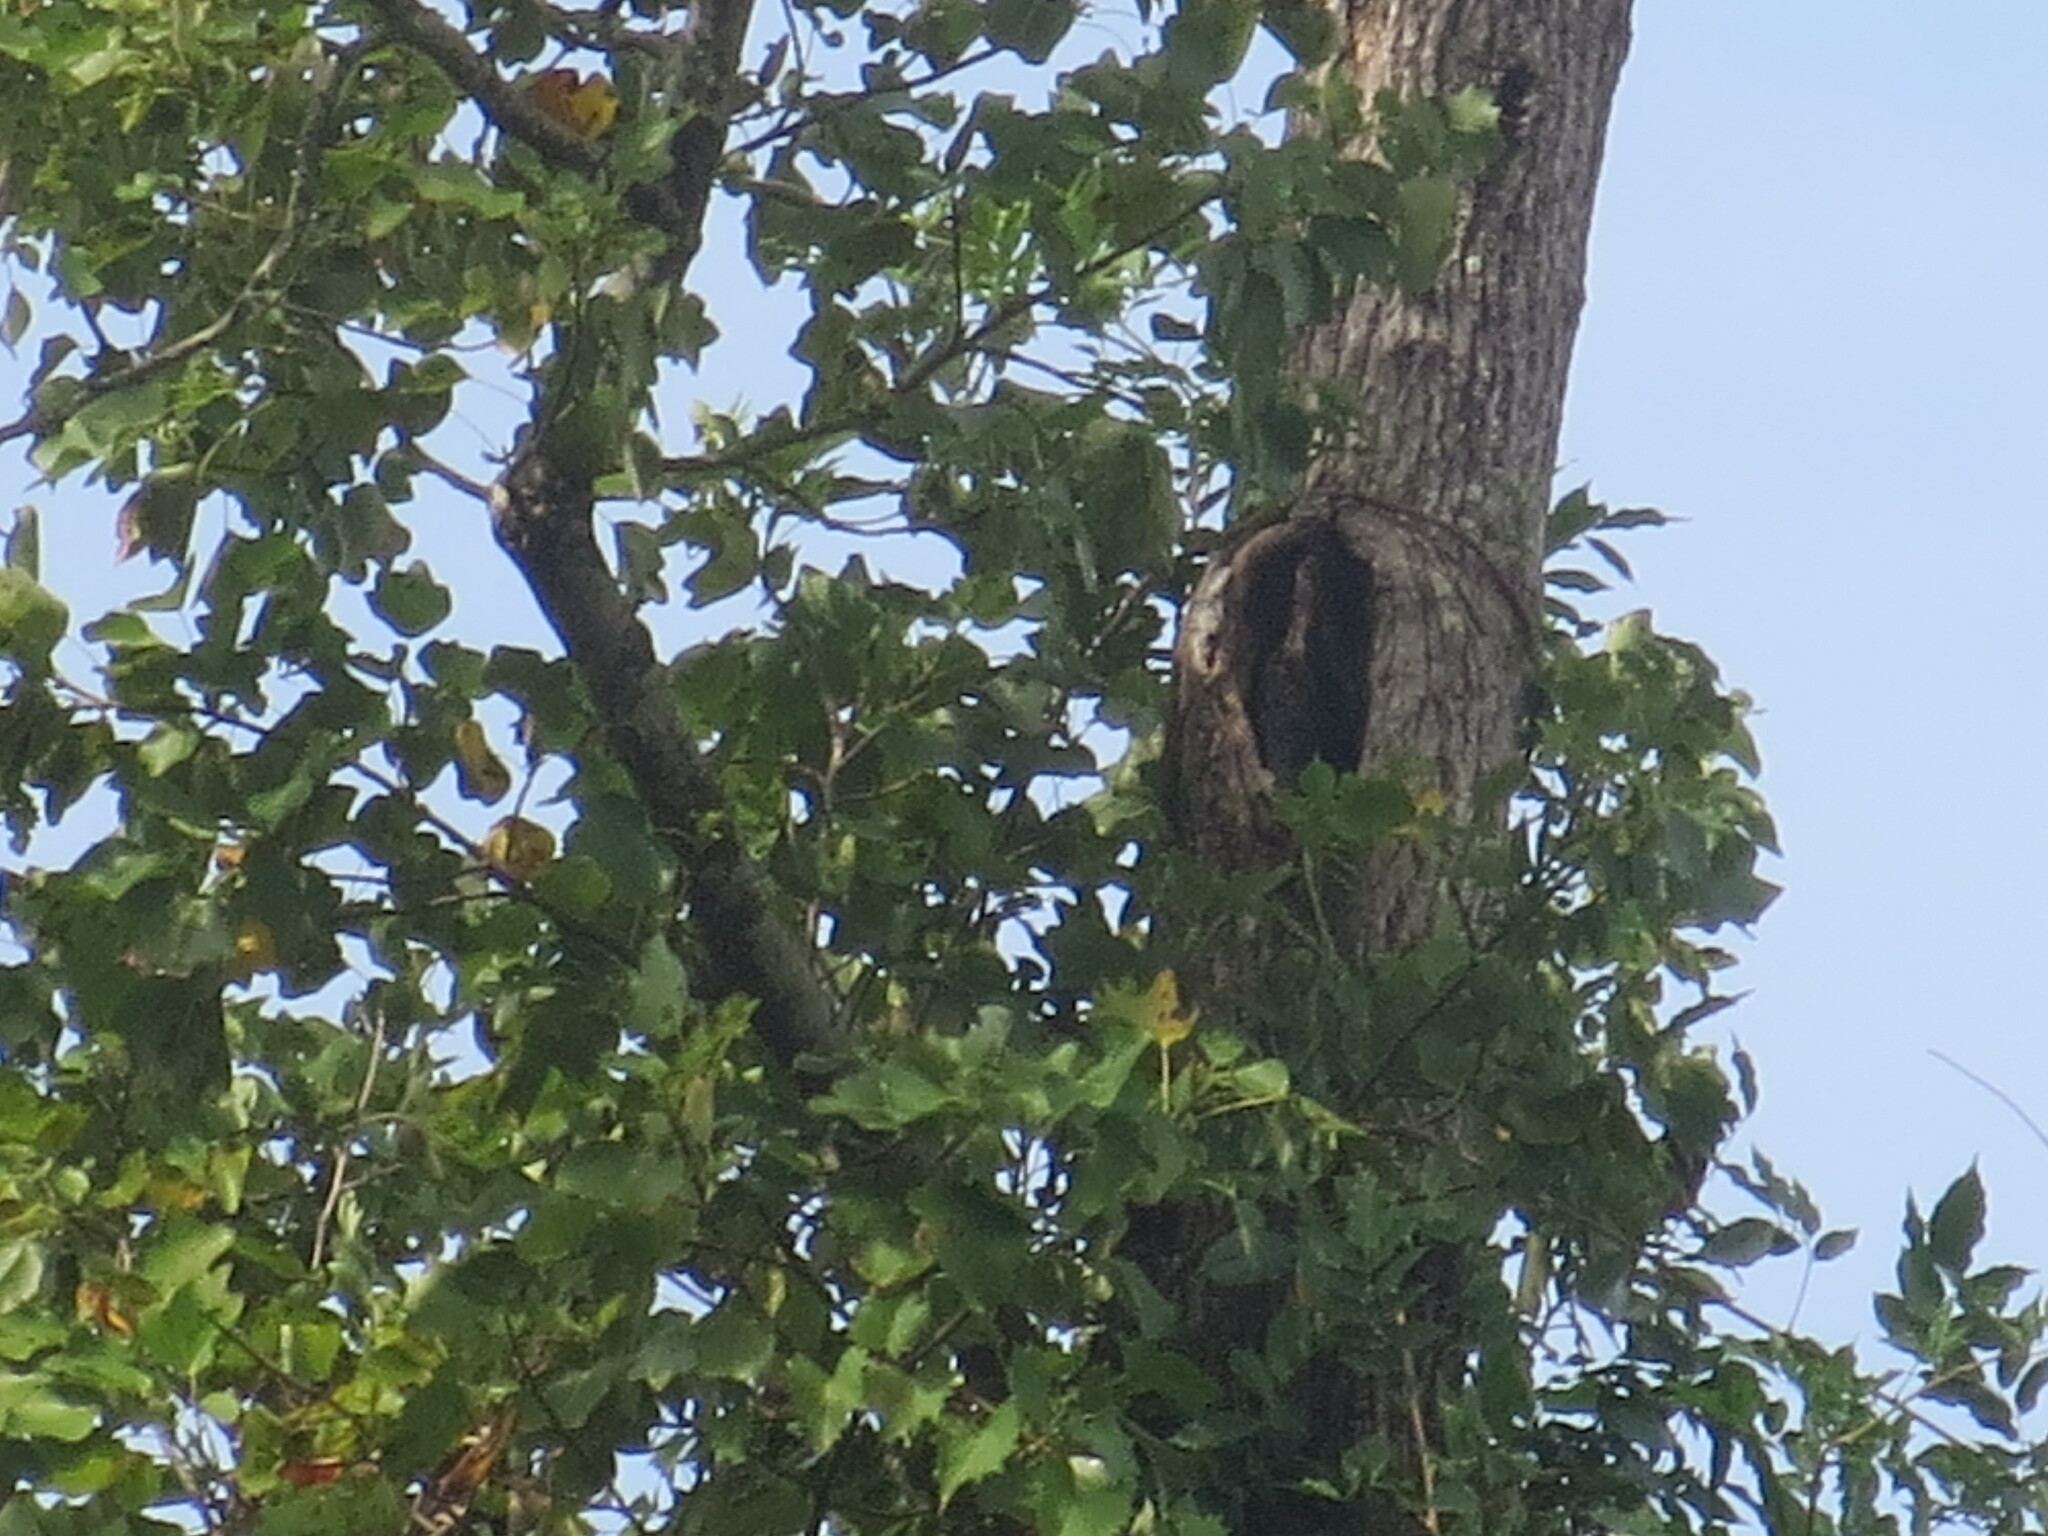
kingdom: Plantae
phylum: Tracheophyta
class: Magnoliopsida
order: Magnoliales
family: Magnoliaceae
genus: Liriodendron
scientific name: Liriodendron tulipifera
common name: Tulip tree
